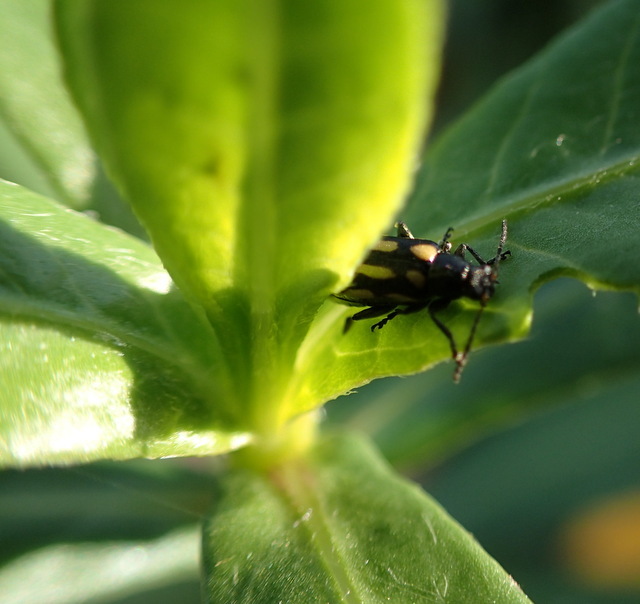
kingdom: Animalia
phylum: Arthropoda
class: Insecta
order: Coleoptera
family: Chrysomelidae
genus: Agasicles
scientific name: Agasicles hygrophila
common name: Alligatorweed flea beetle
